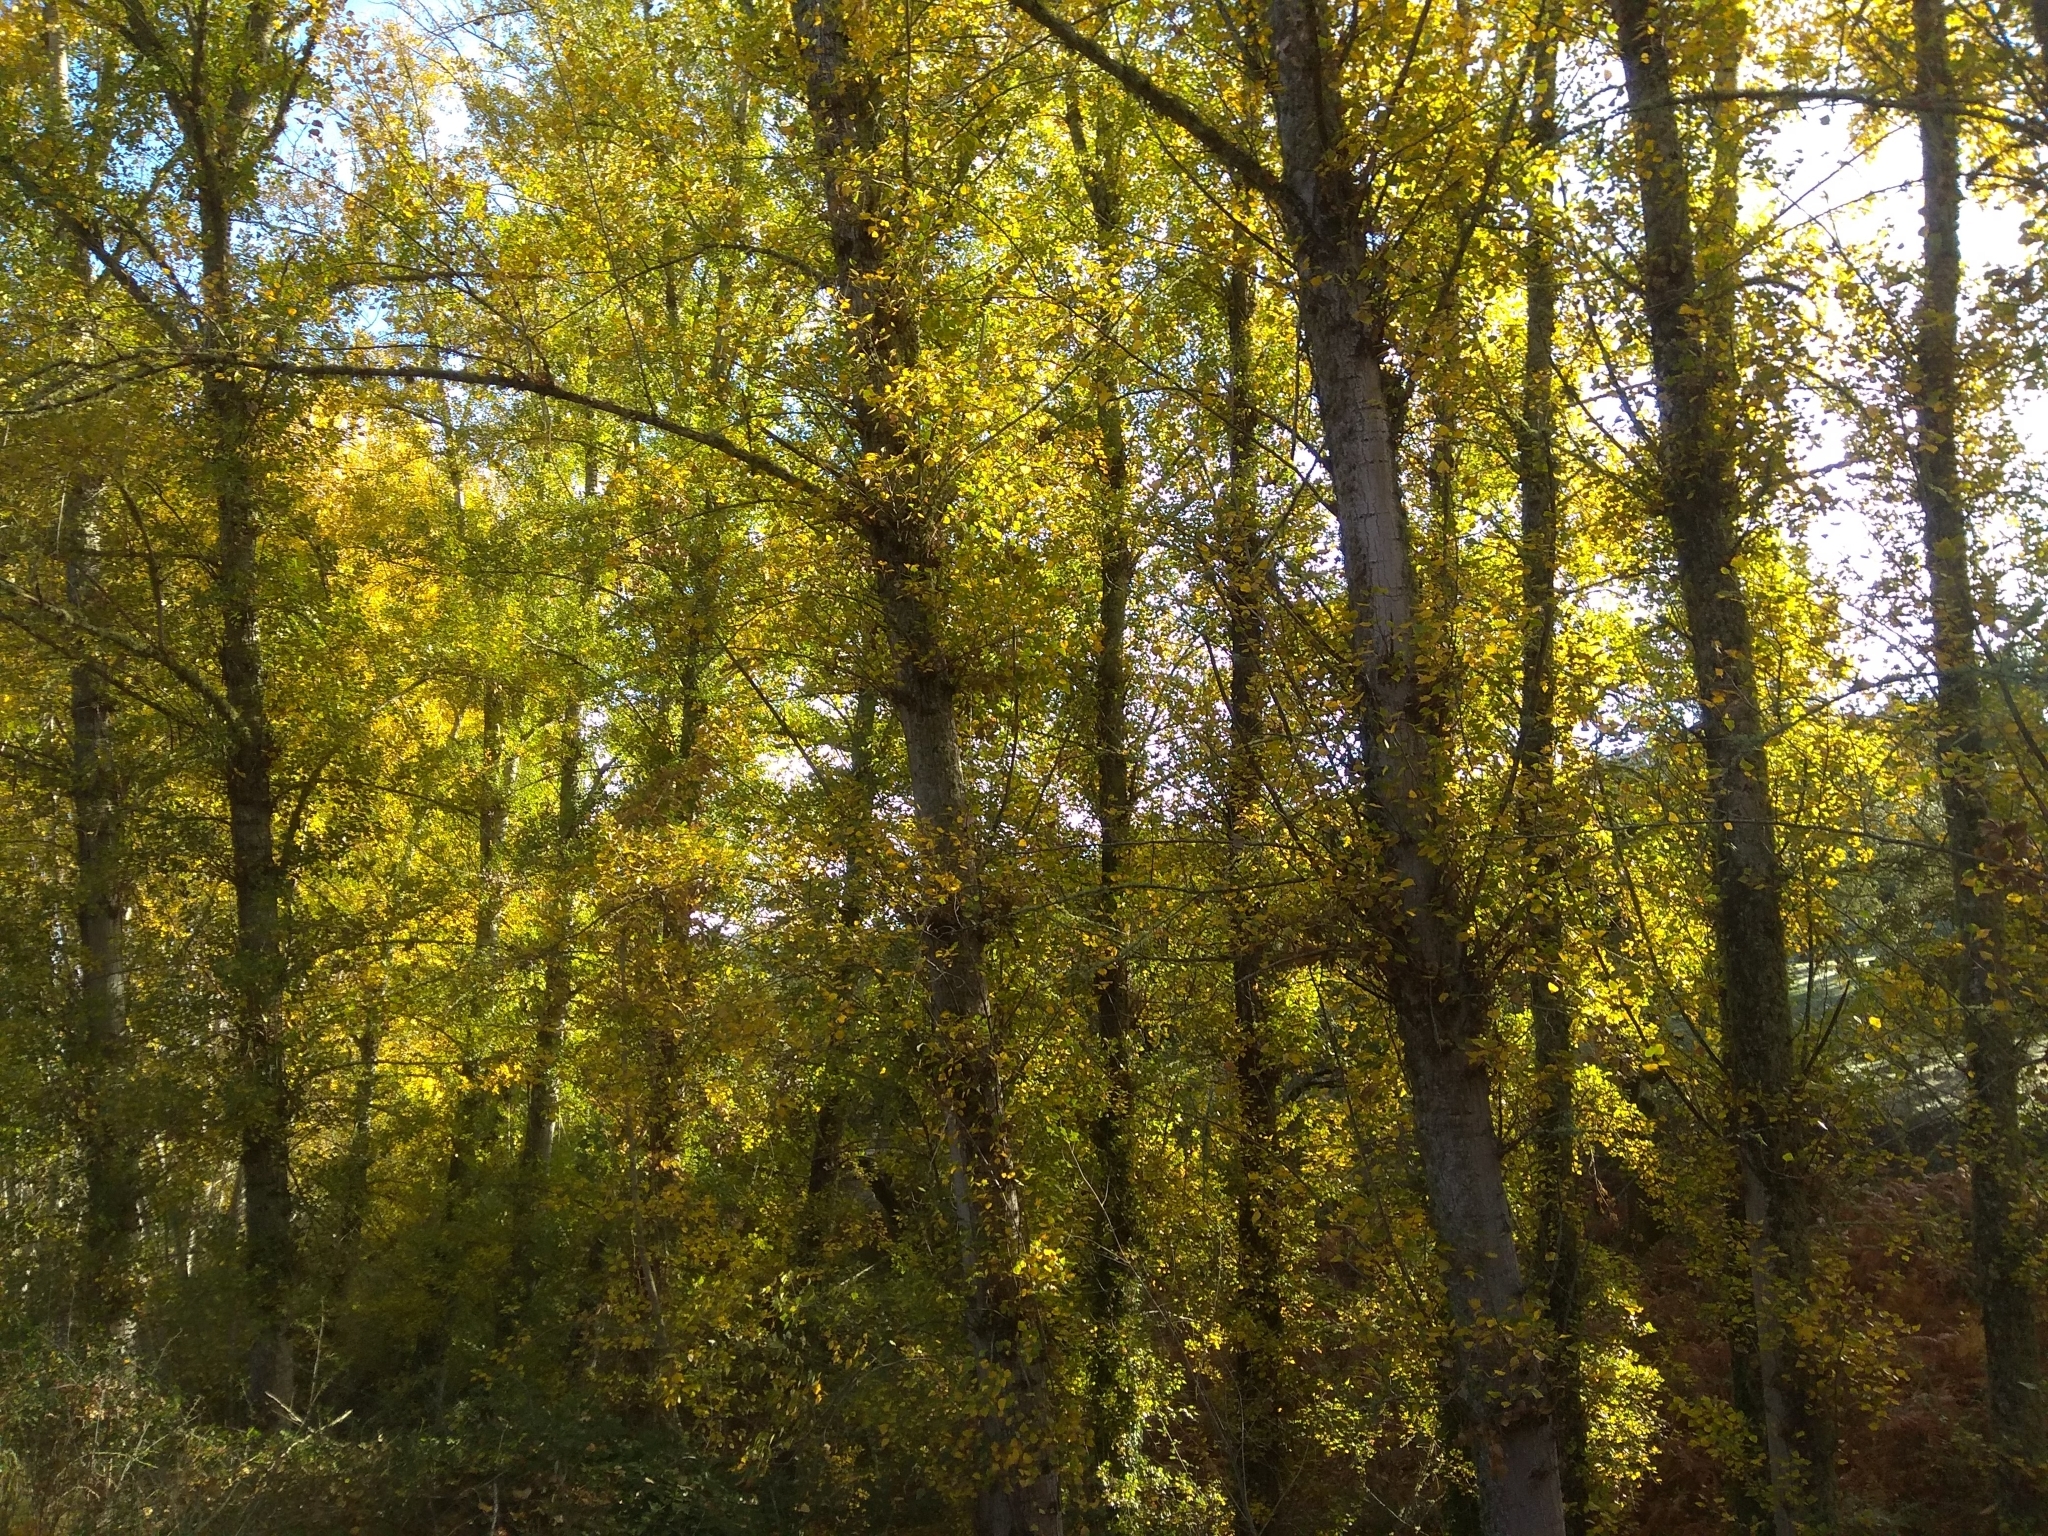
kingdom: Plantae
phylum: Tracheophyta
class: Magnoliopsida
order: Malpighiales
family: Salicaceae
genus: Populus
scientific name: Populus nigra
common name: Black poplar
